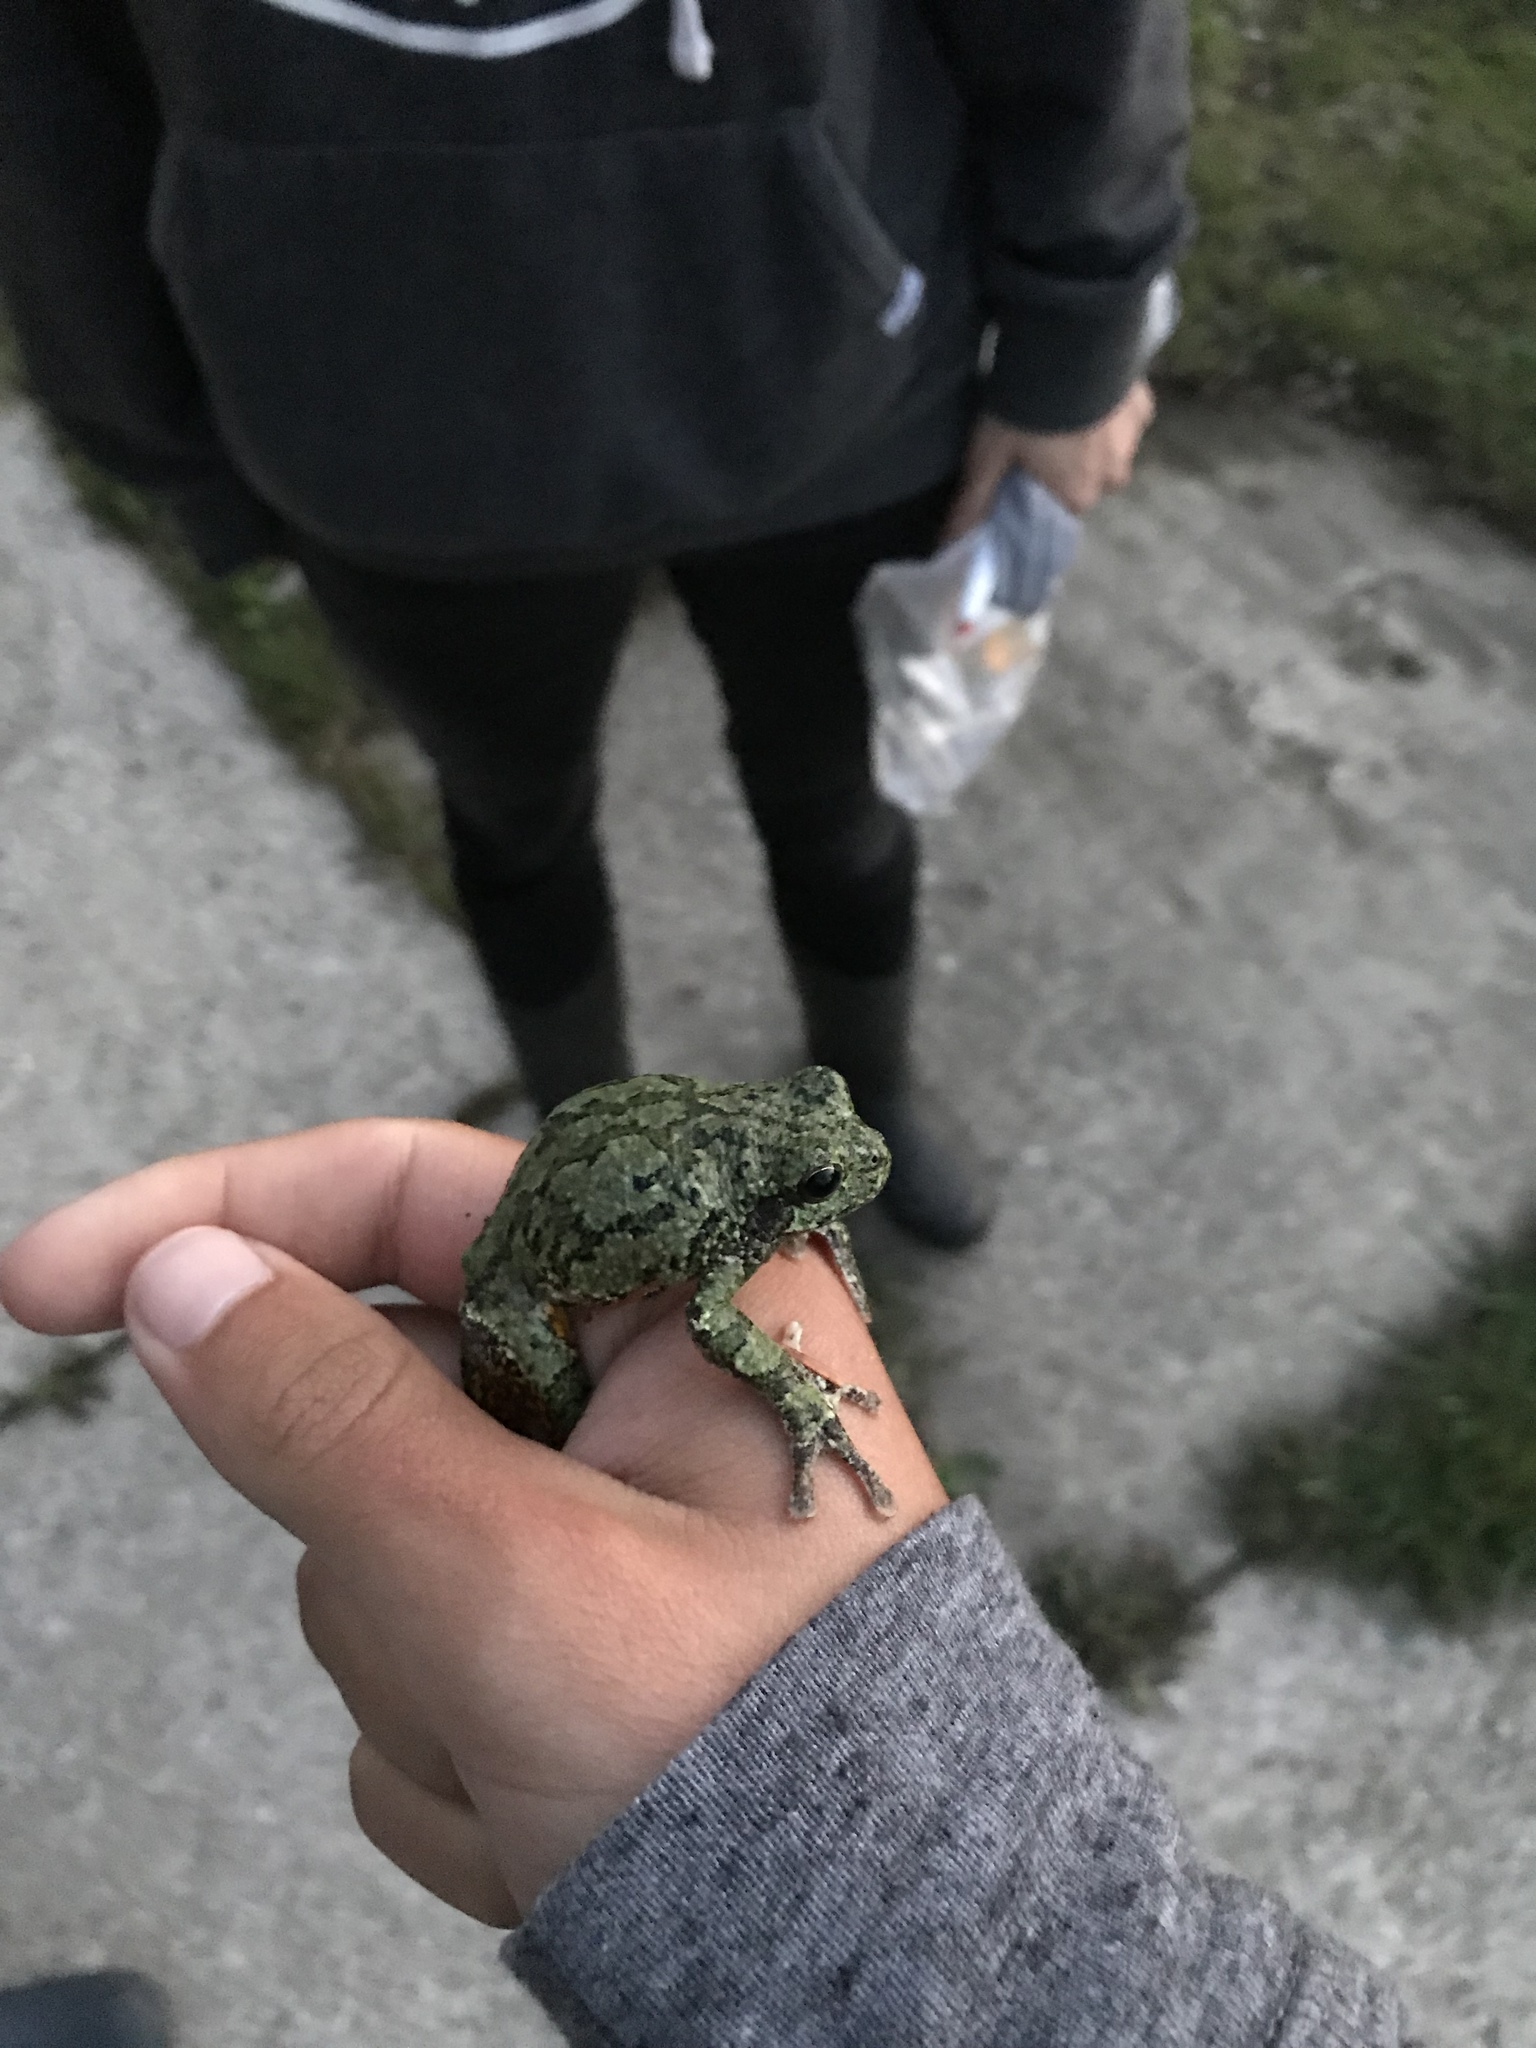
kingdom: Animalia
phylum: Chordata
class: Amphibia
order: Anura
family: Hylidae
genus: Dryophytes
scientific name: Dryophytes versicolor
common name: Gray treefrog
